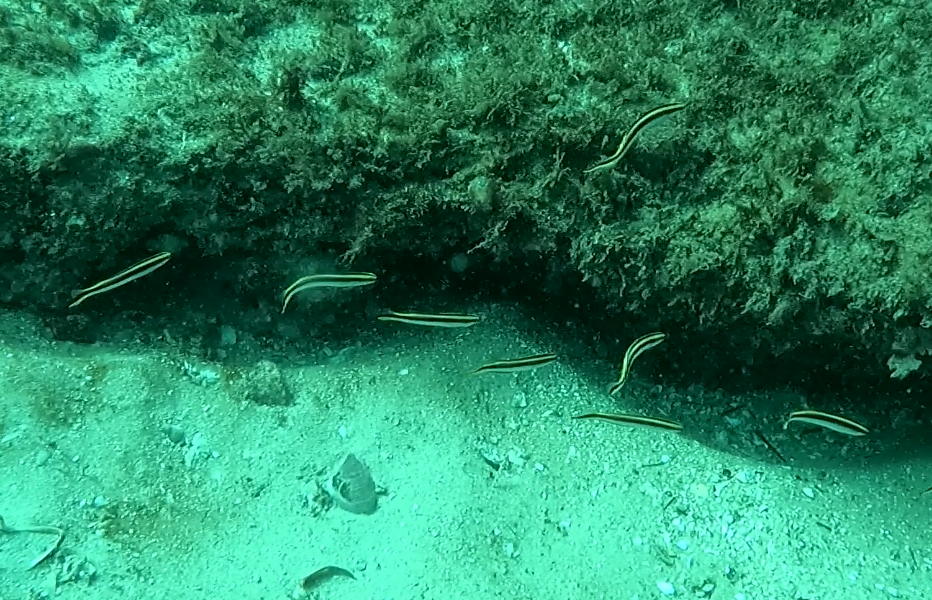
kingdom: Animalia
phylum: Chordata
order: Perciformes
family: Plesiopidae
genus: Trachinops
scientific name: Trachinops taeniatus
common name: Eastern hulafish
